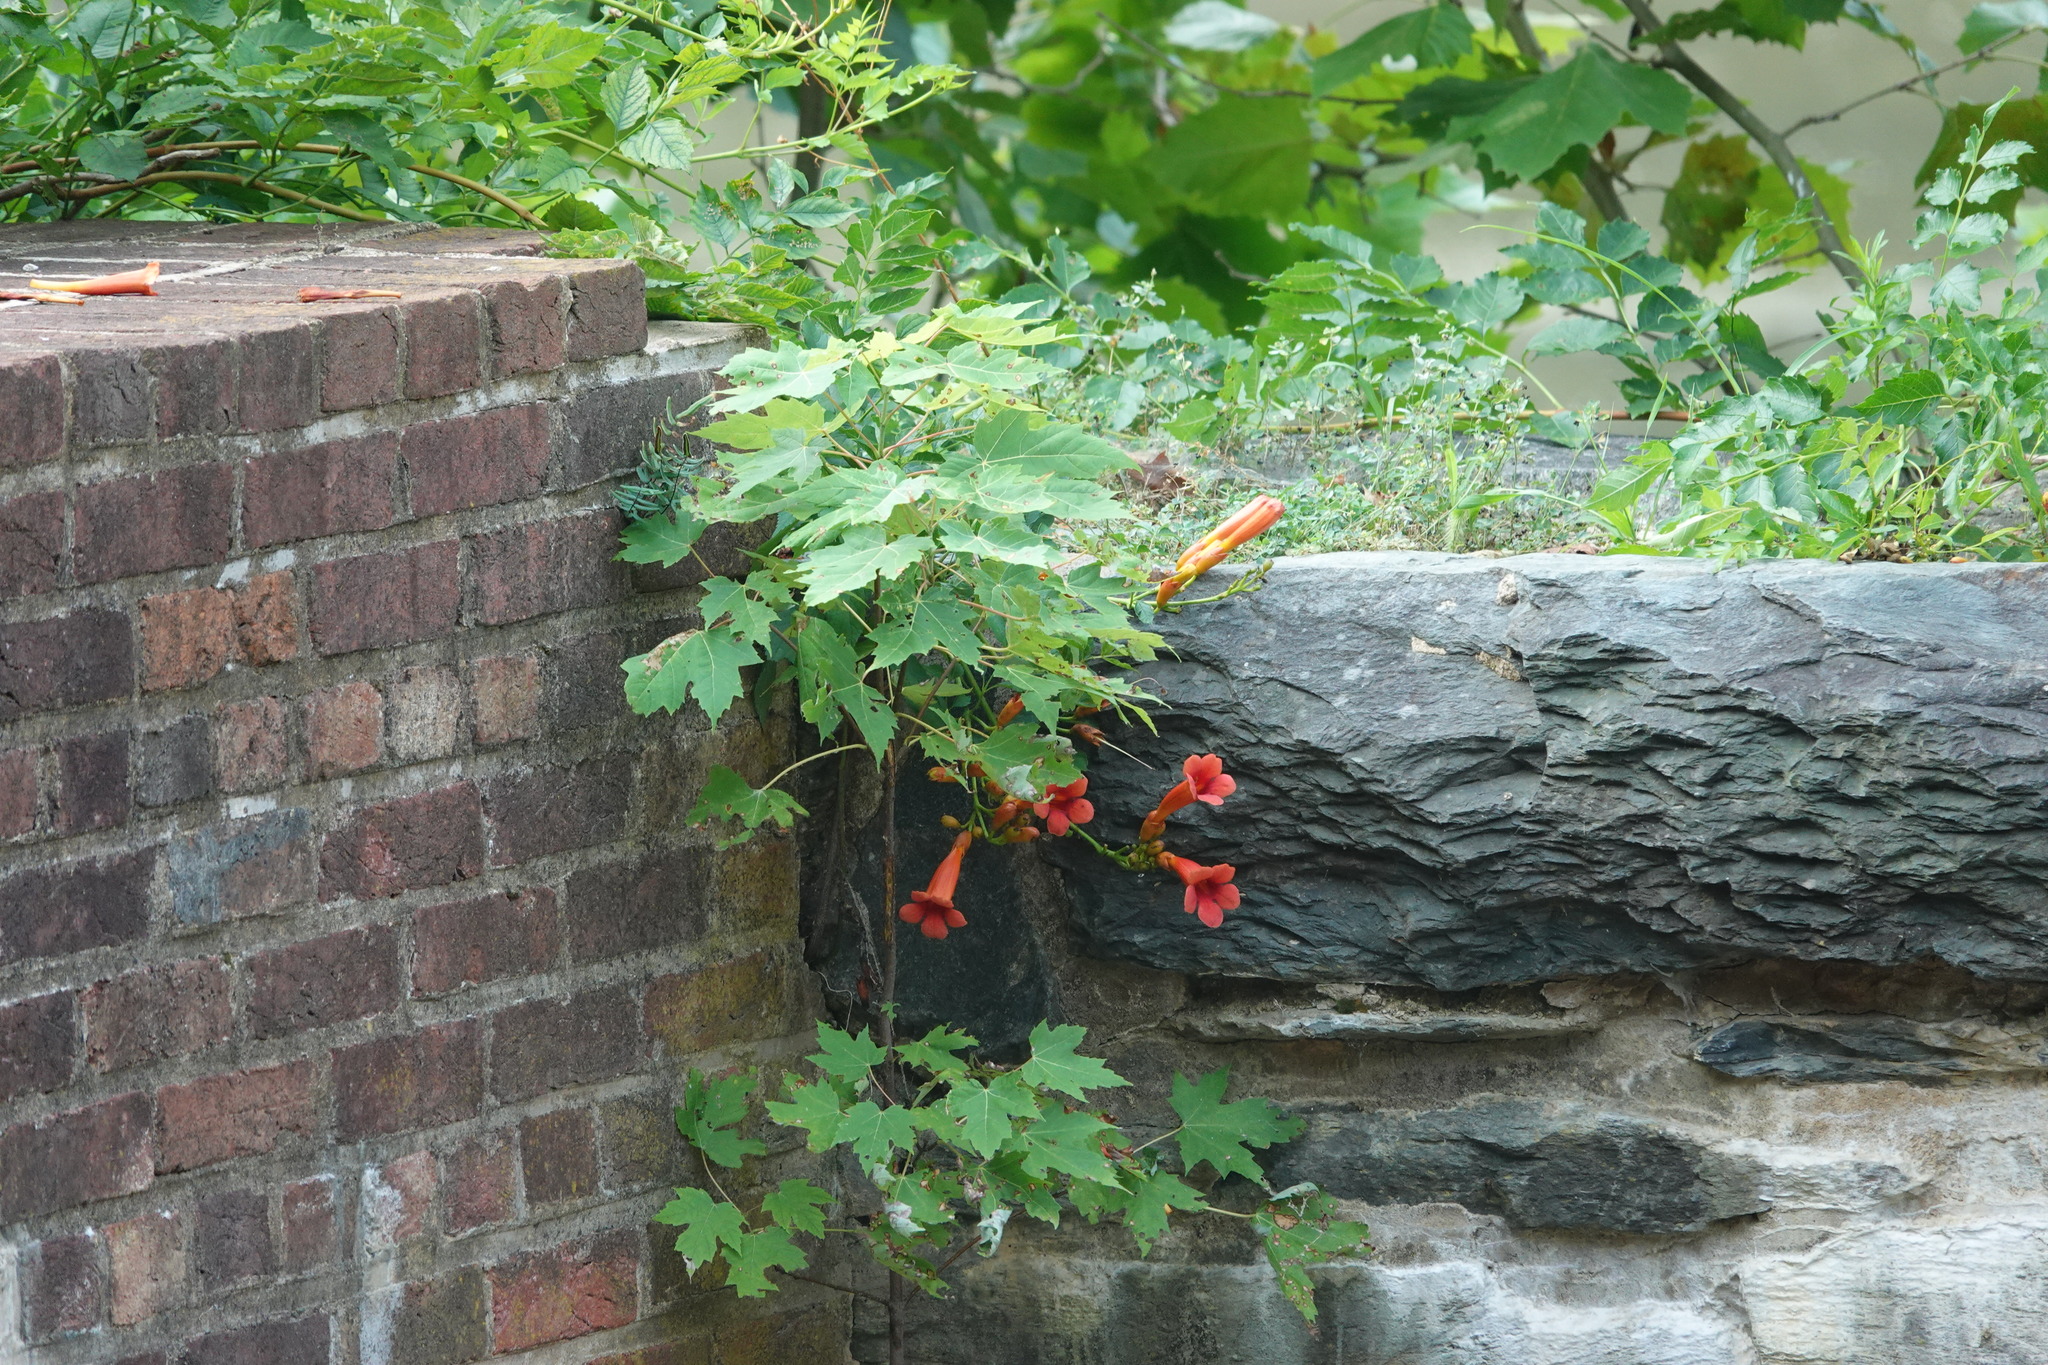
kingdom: Plantae
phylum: Tracheophyta
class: Magnoliopsida
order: Lamiales
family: Bignoniaceae
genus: Campsis
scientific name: Campsis radicans
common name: Trumpet-creeper
